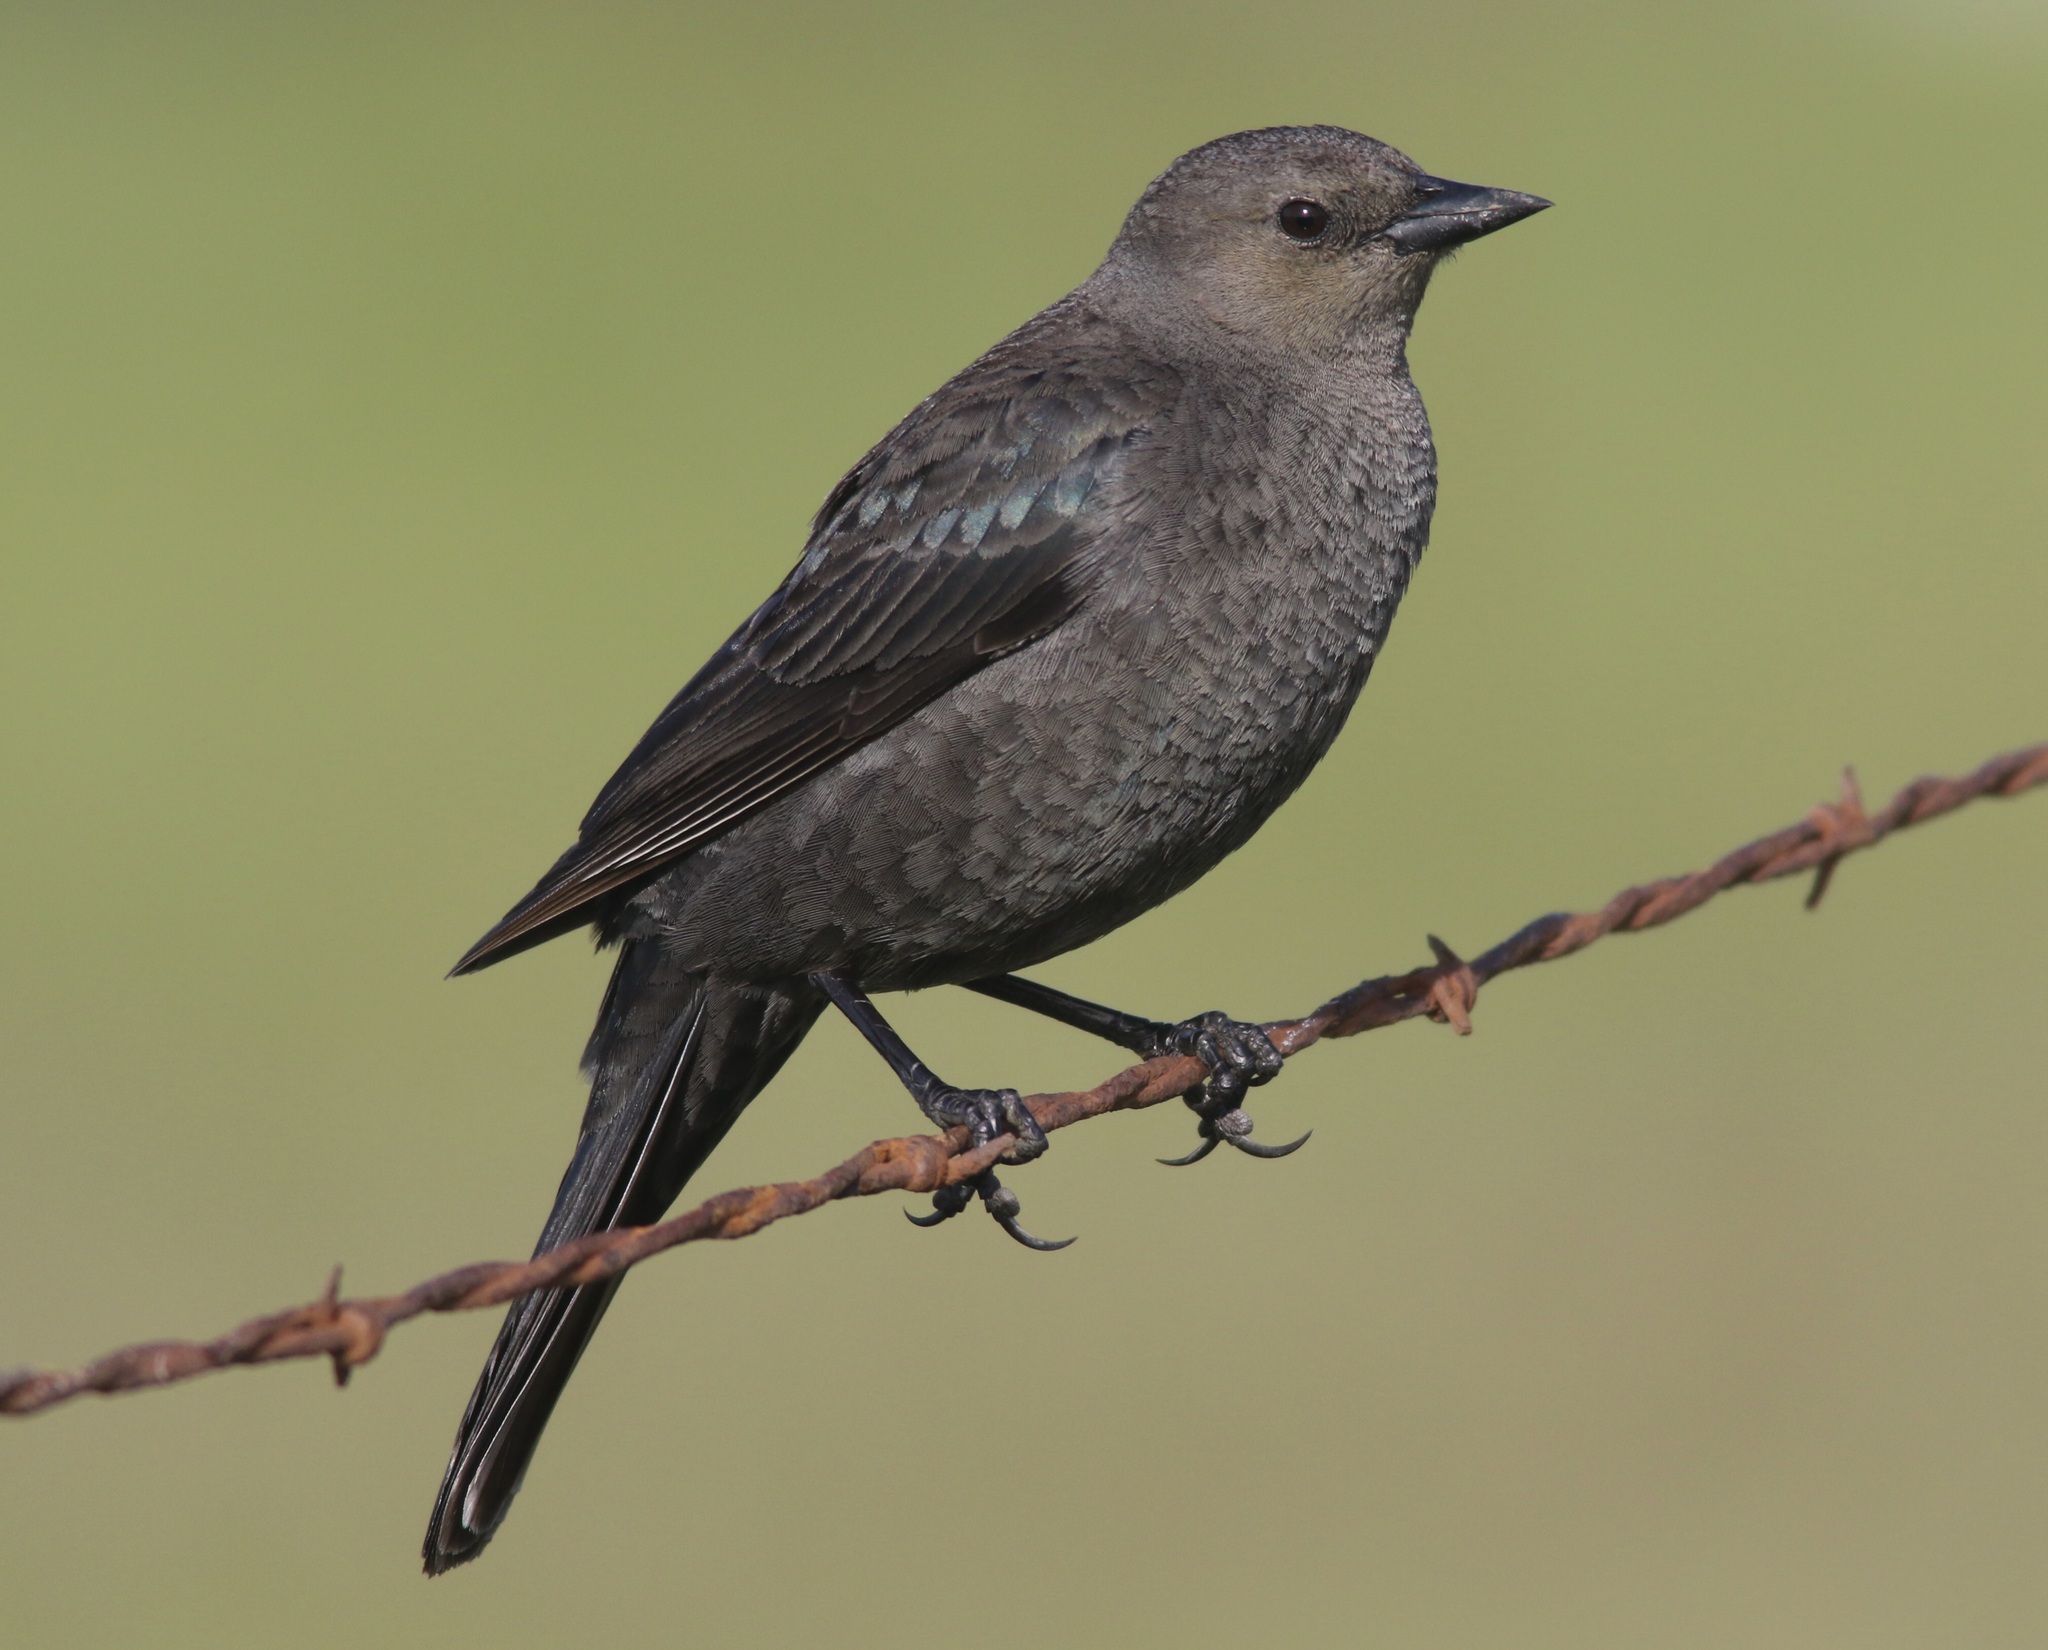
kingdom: Animalia
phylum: Chordata
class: Aves
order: Passeriformes
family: Icteridae
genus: Euphagus
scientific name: Euphagus cyanocephalus
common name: Brewer's blackbird
